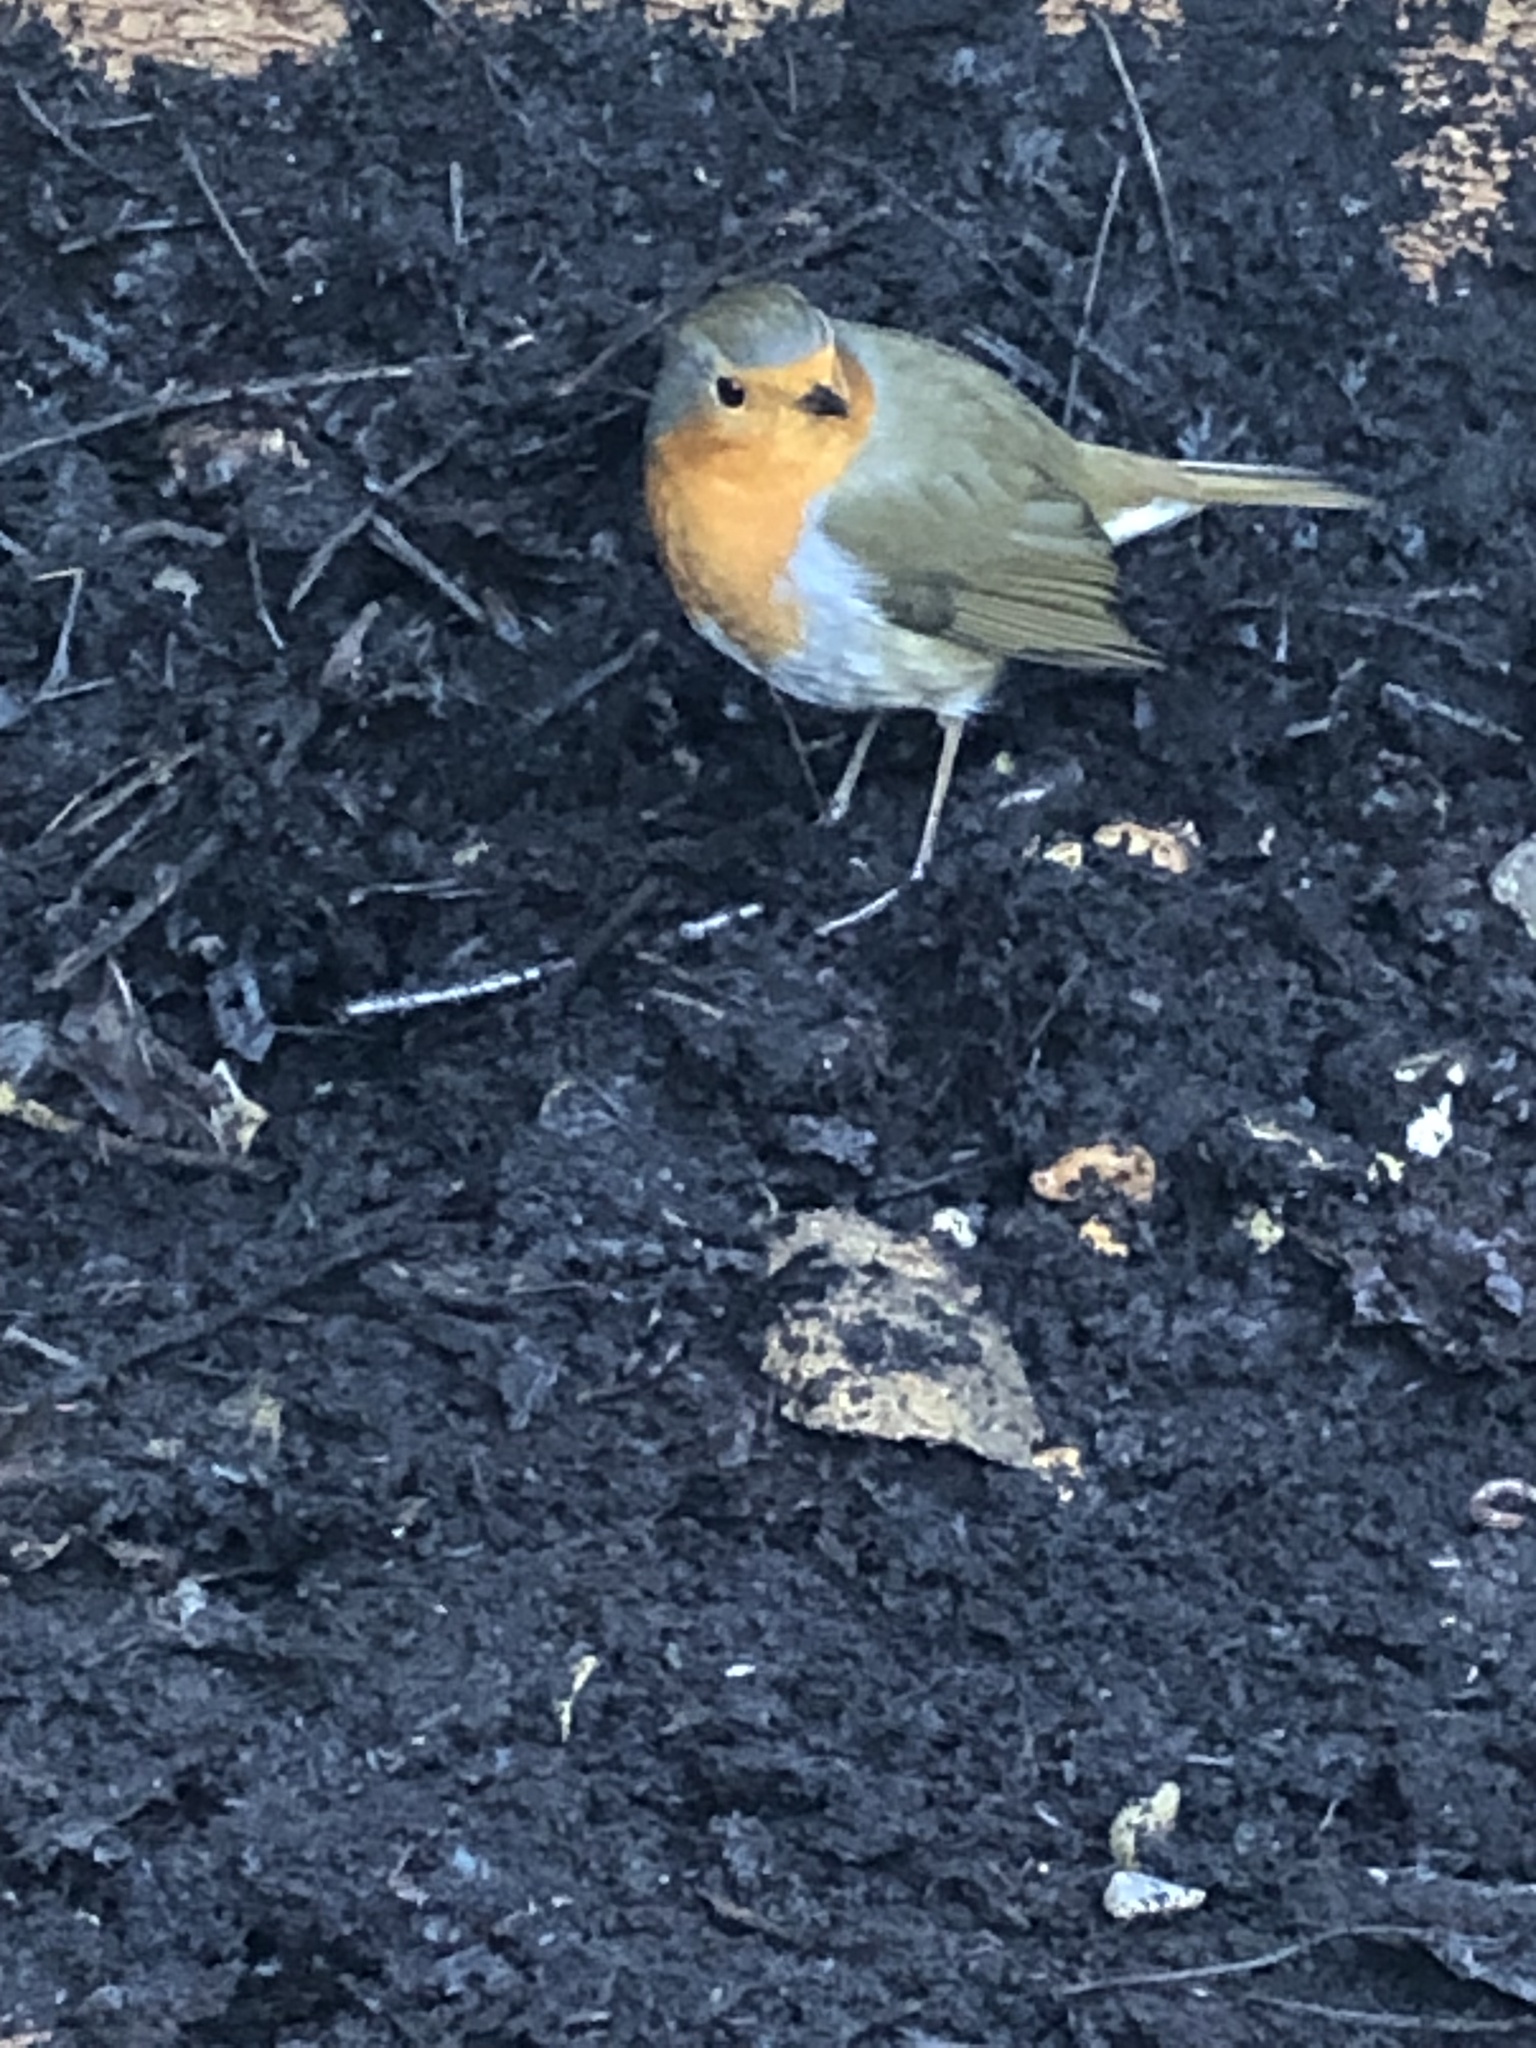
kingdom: Animalia
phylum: Chordata
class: Aves
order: Passeriformes
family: Muscicapidae
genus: Erithacus
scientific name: Erithacus rubecula
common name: European robin
